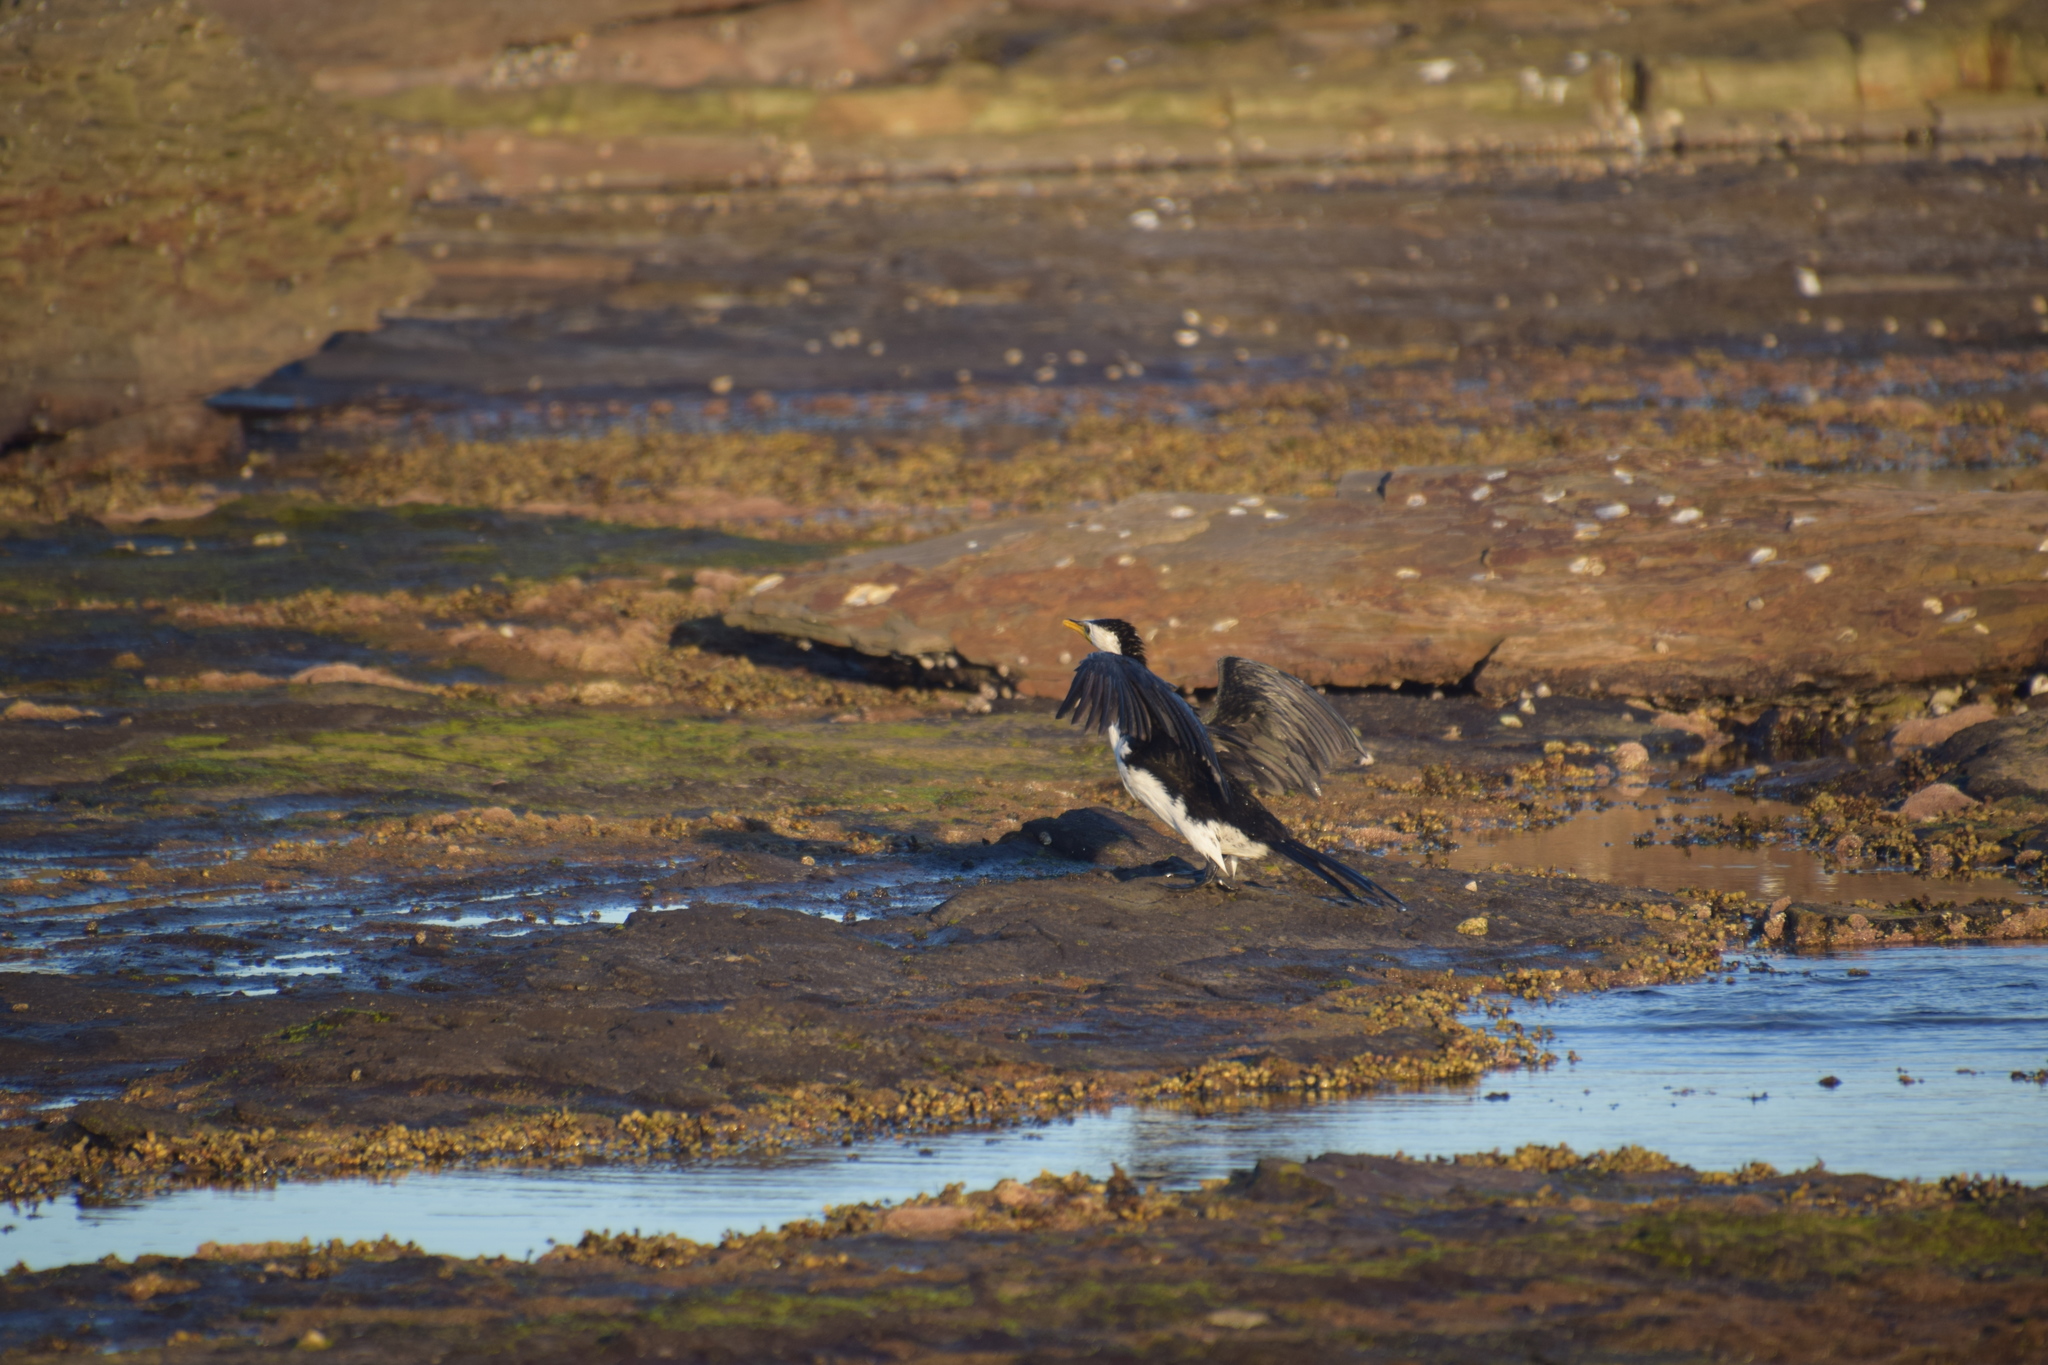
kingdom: Animalia
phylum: Chordata
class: Aves
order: Suliformes
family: Phalacrocoracidae
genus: Microcarbo
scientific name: Microcarbo melanoleucos
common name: Little pied cormorant
